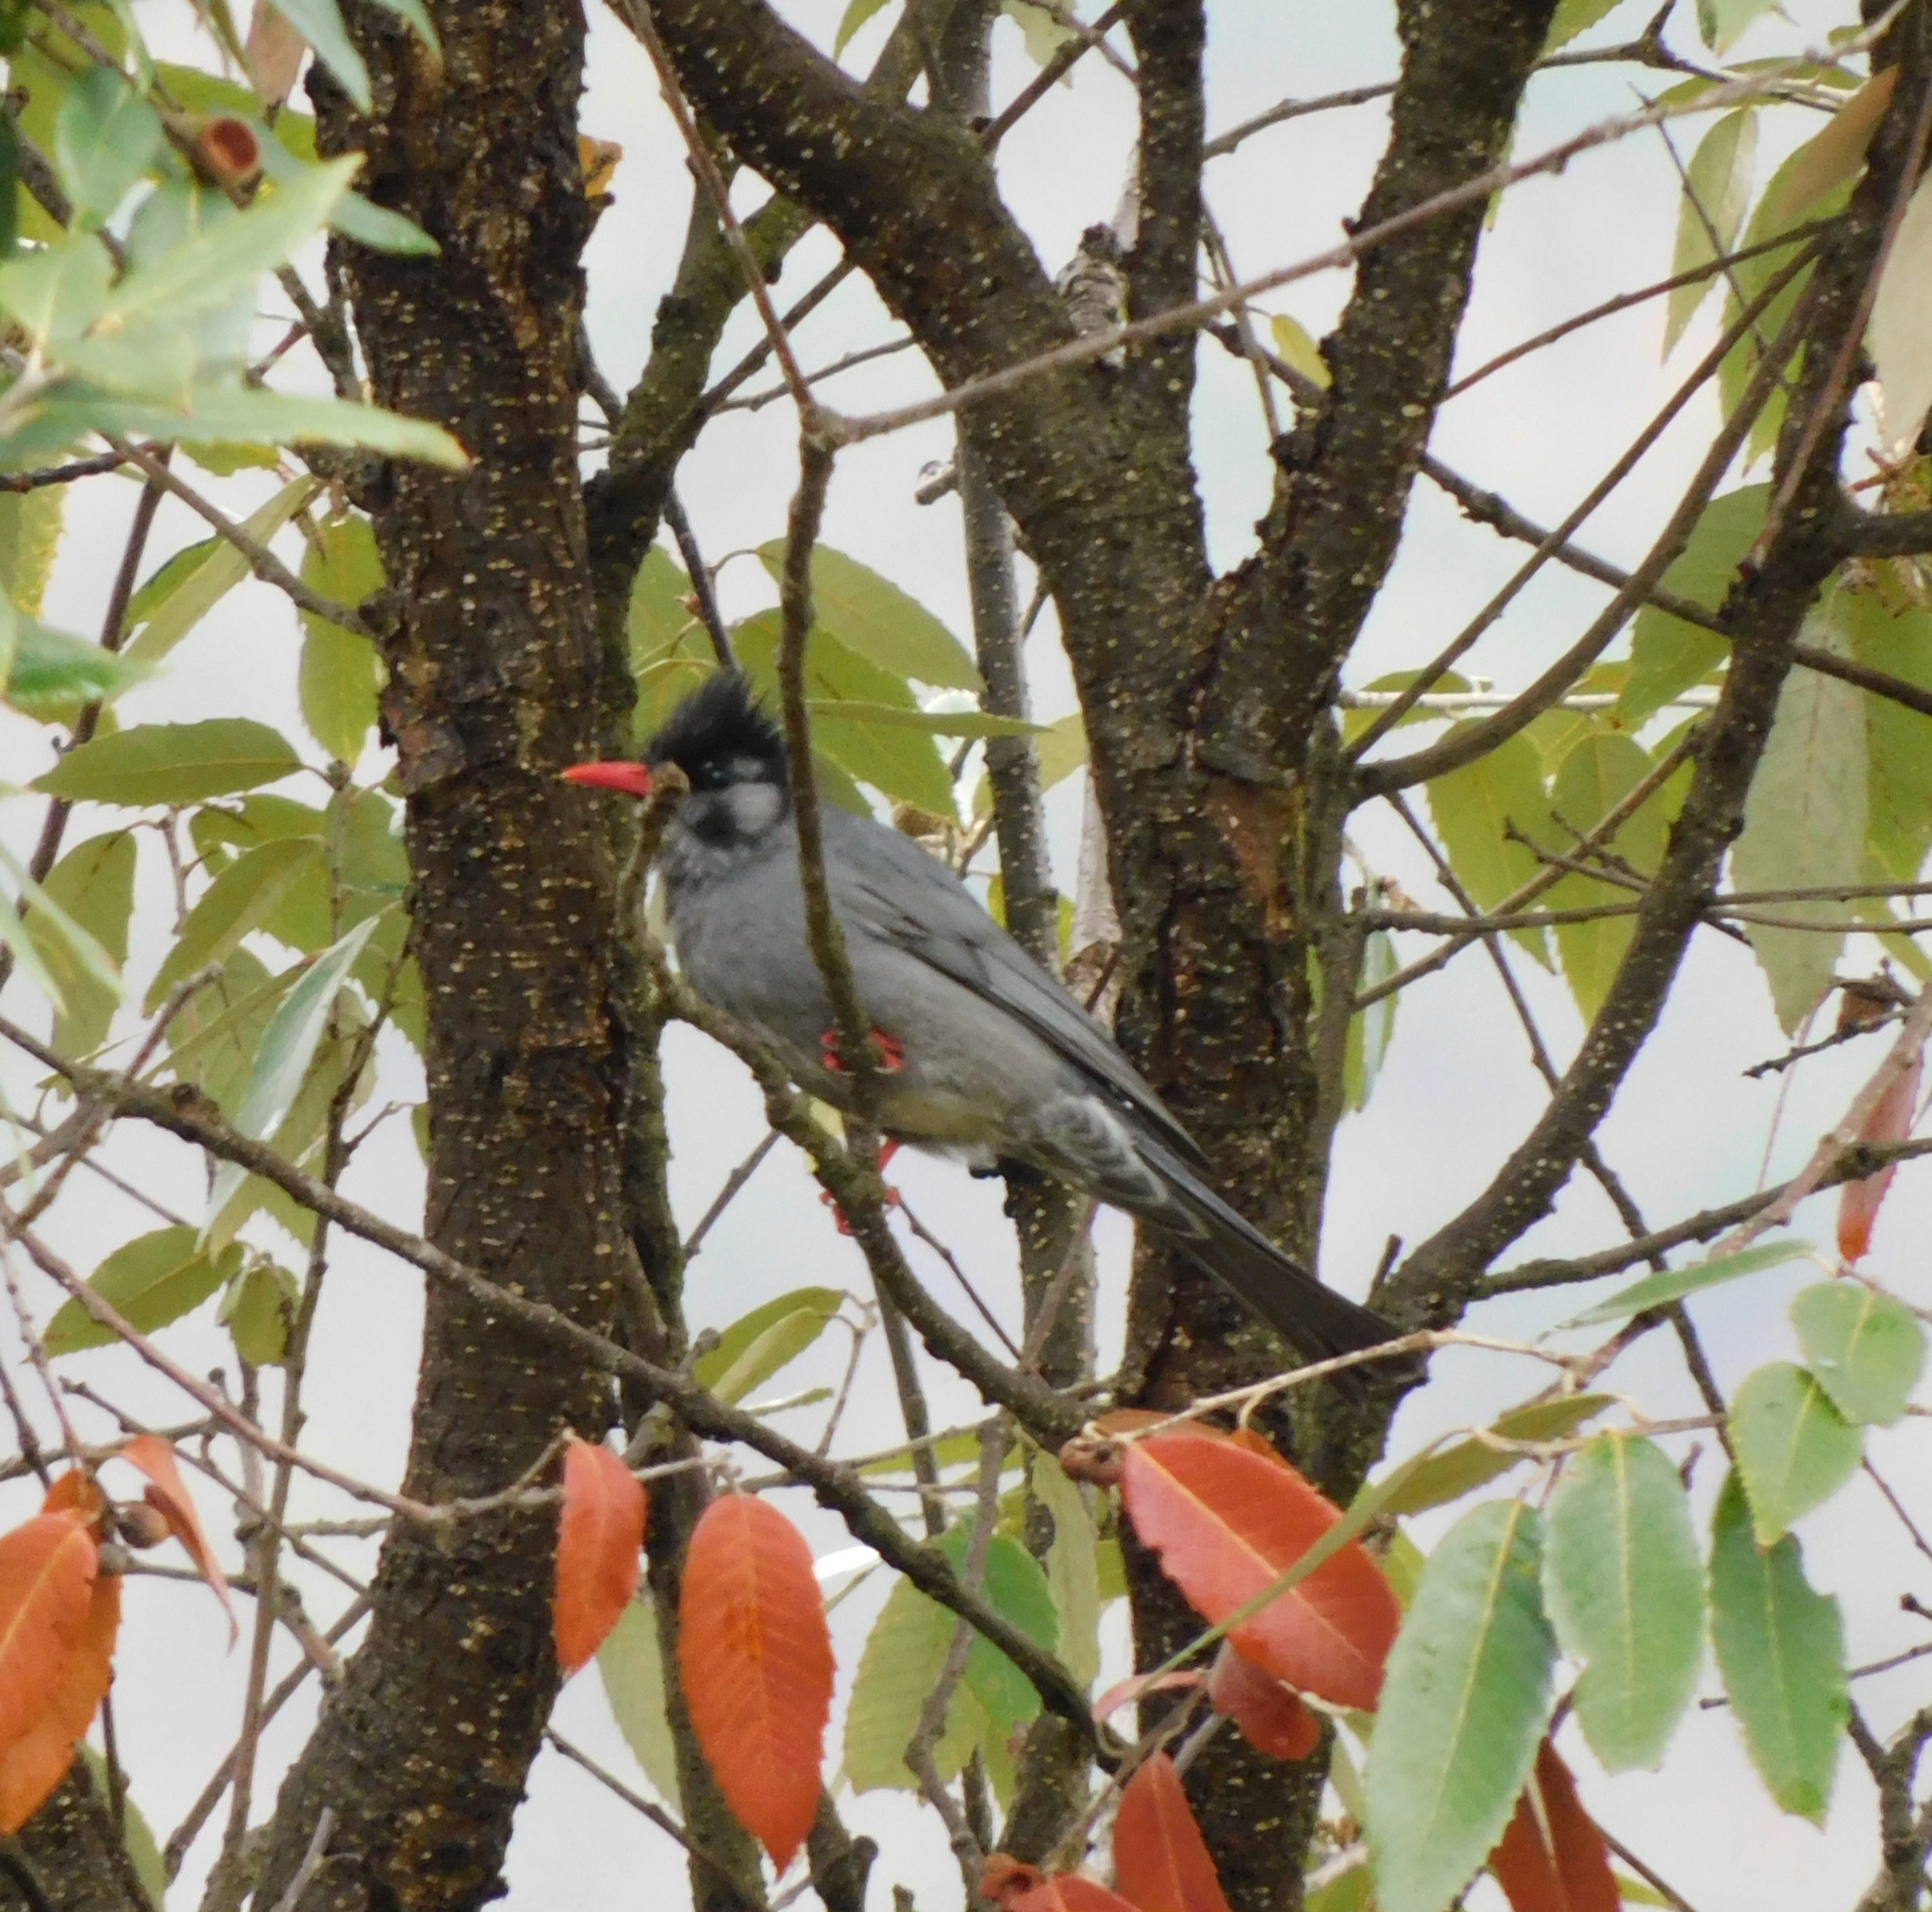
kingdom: Animalia
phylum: Chordata
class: Aves
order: Passeriformes
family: Pycnonotidae
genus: Hypsipetes
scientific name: Hypsipetes leucocephalus
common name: Black bulbul
